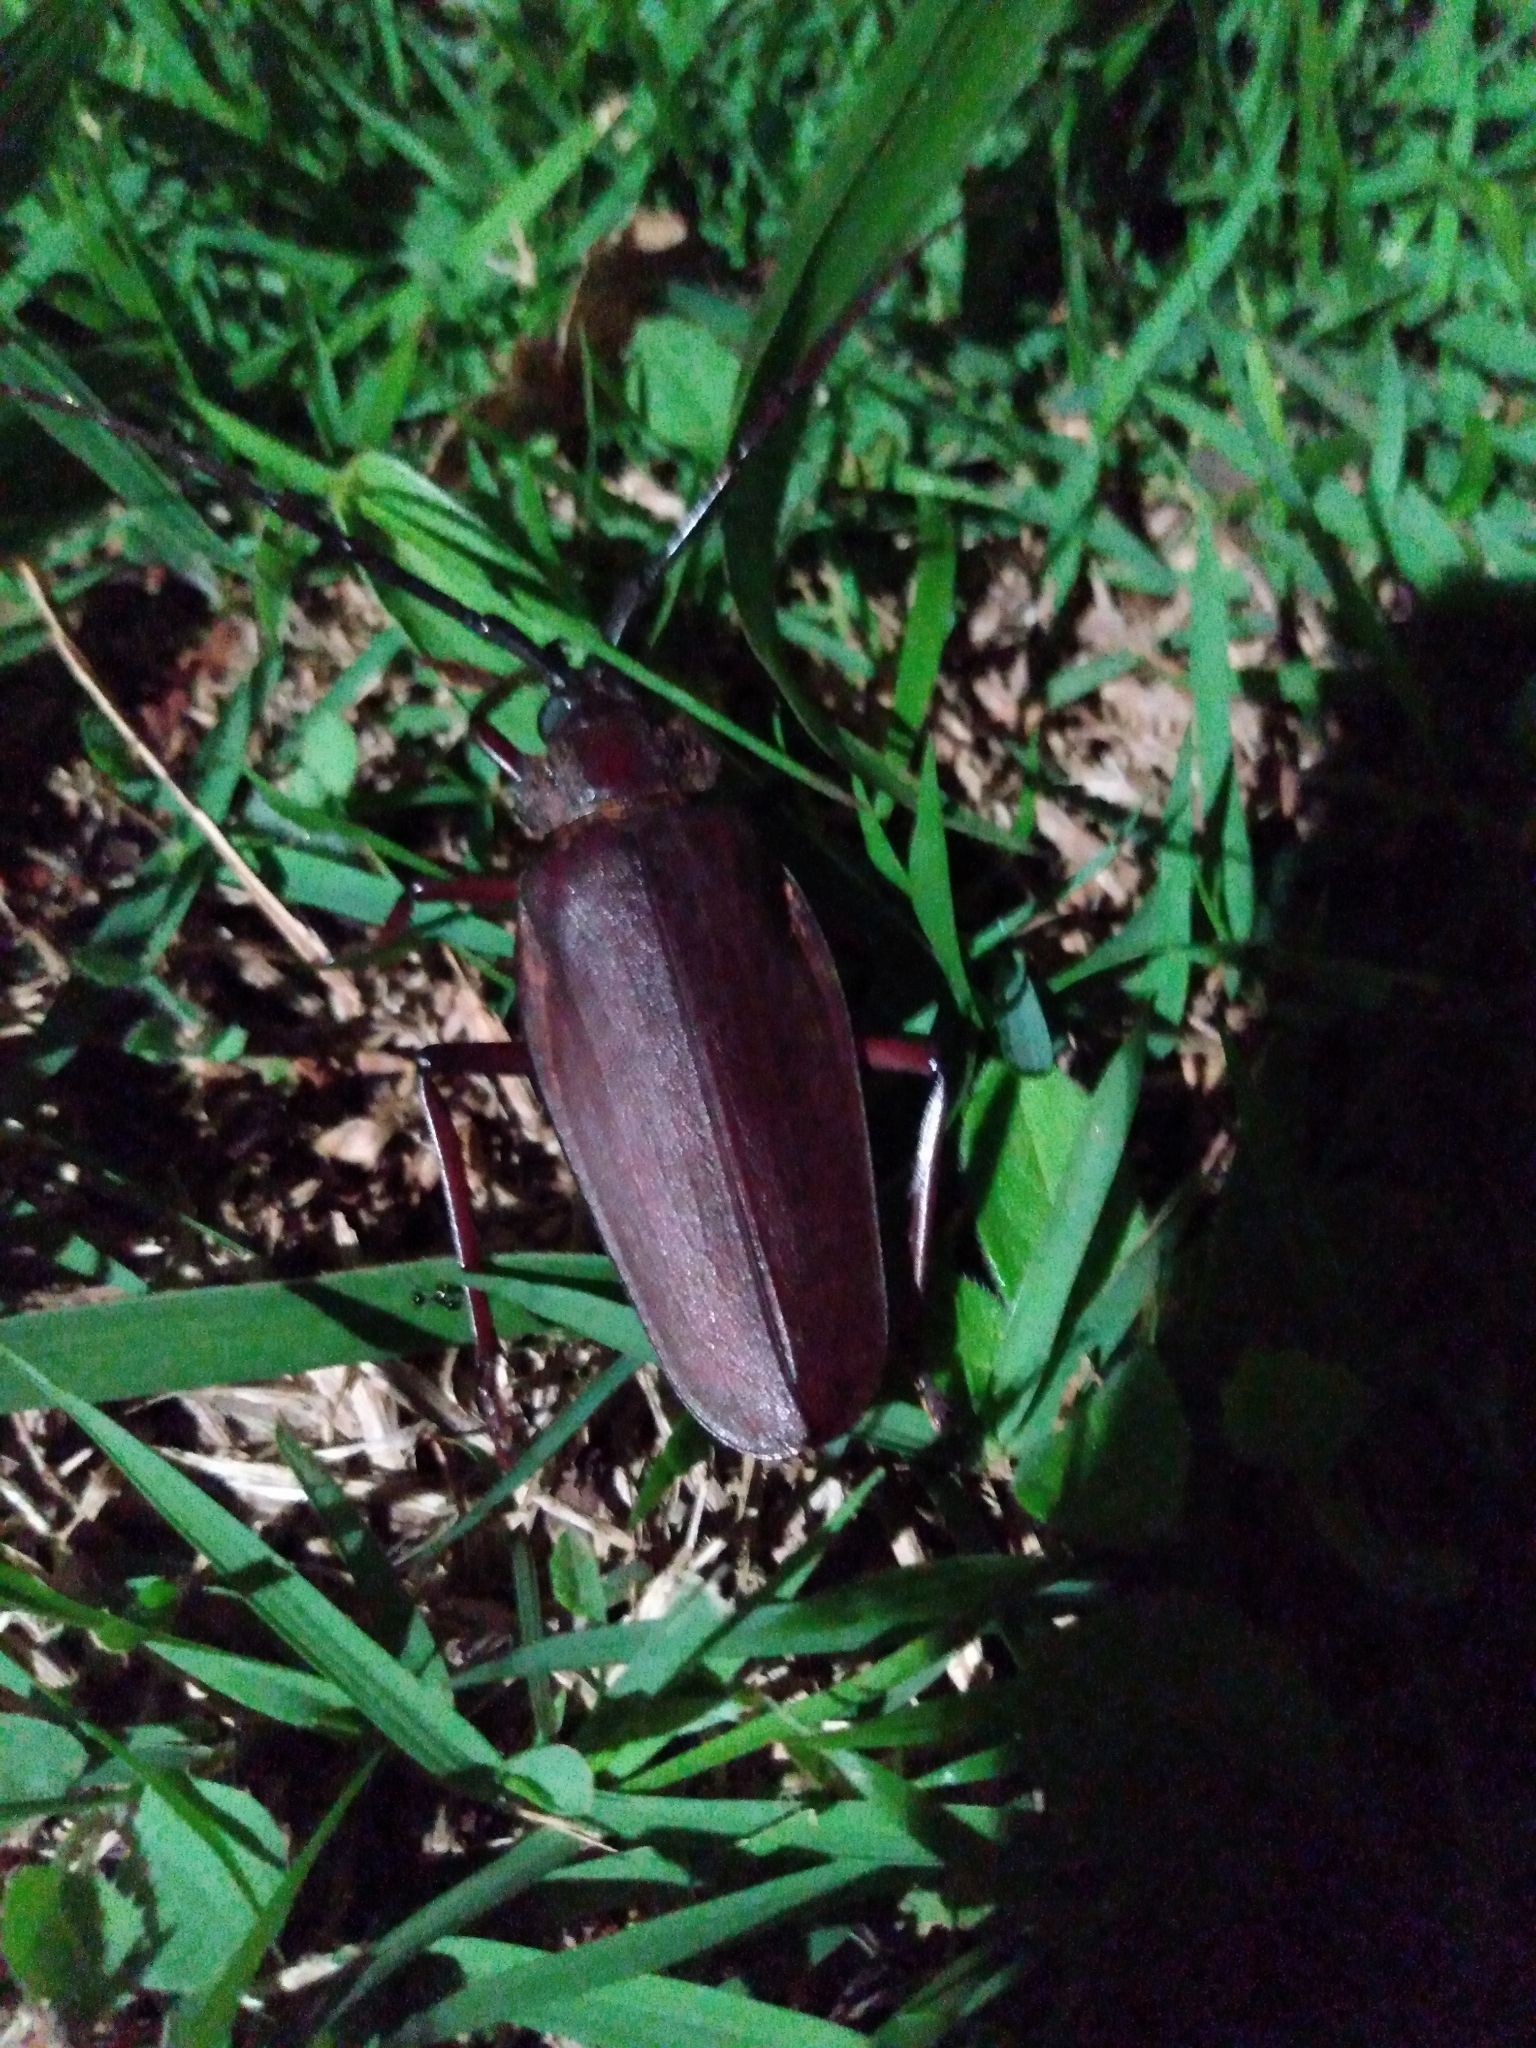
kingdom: Animalia
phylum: Arthropoda
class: Insecta
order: Coleoptera
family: Cerambycidae
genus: Ctenoscelis
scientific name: Ctenoscelis coeus
